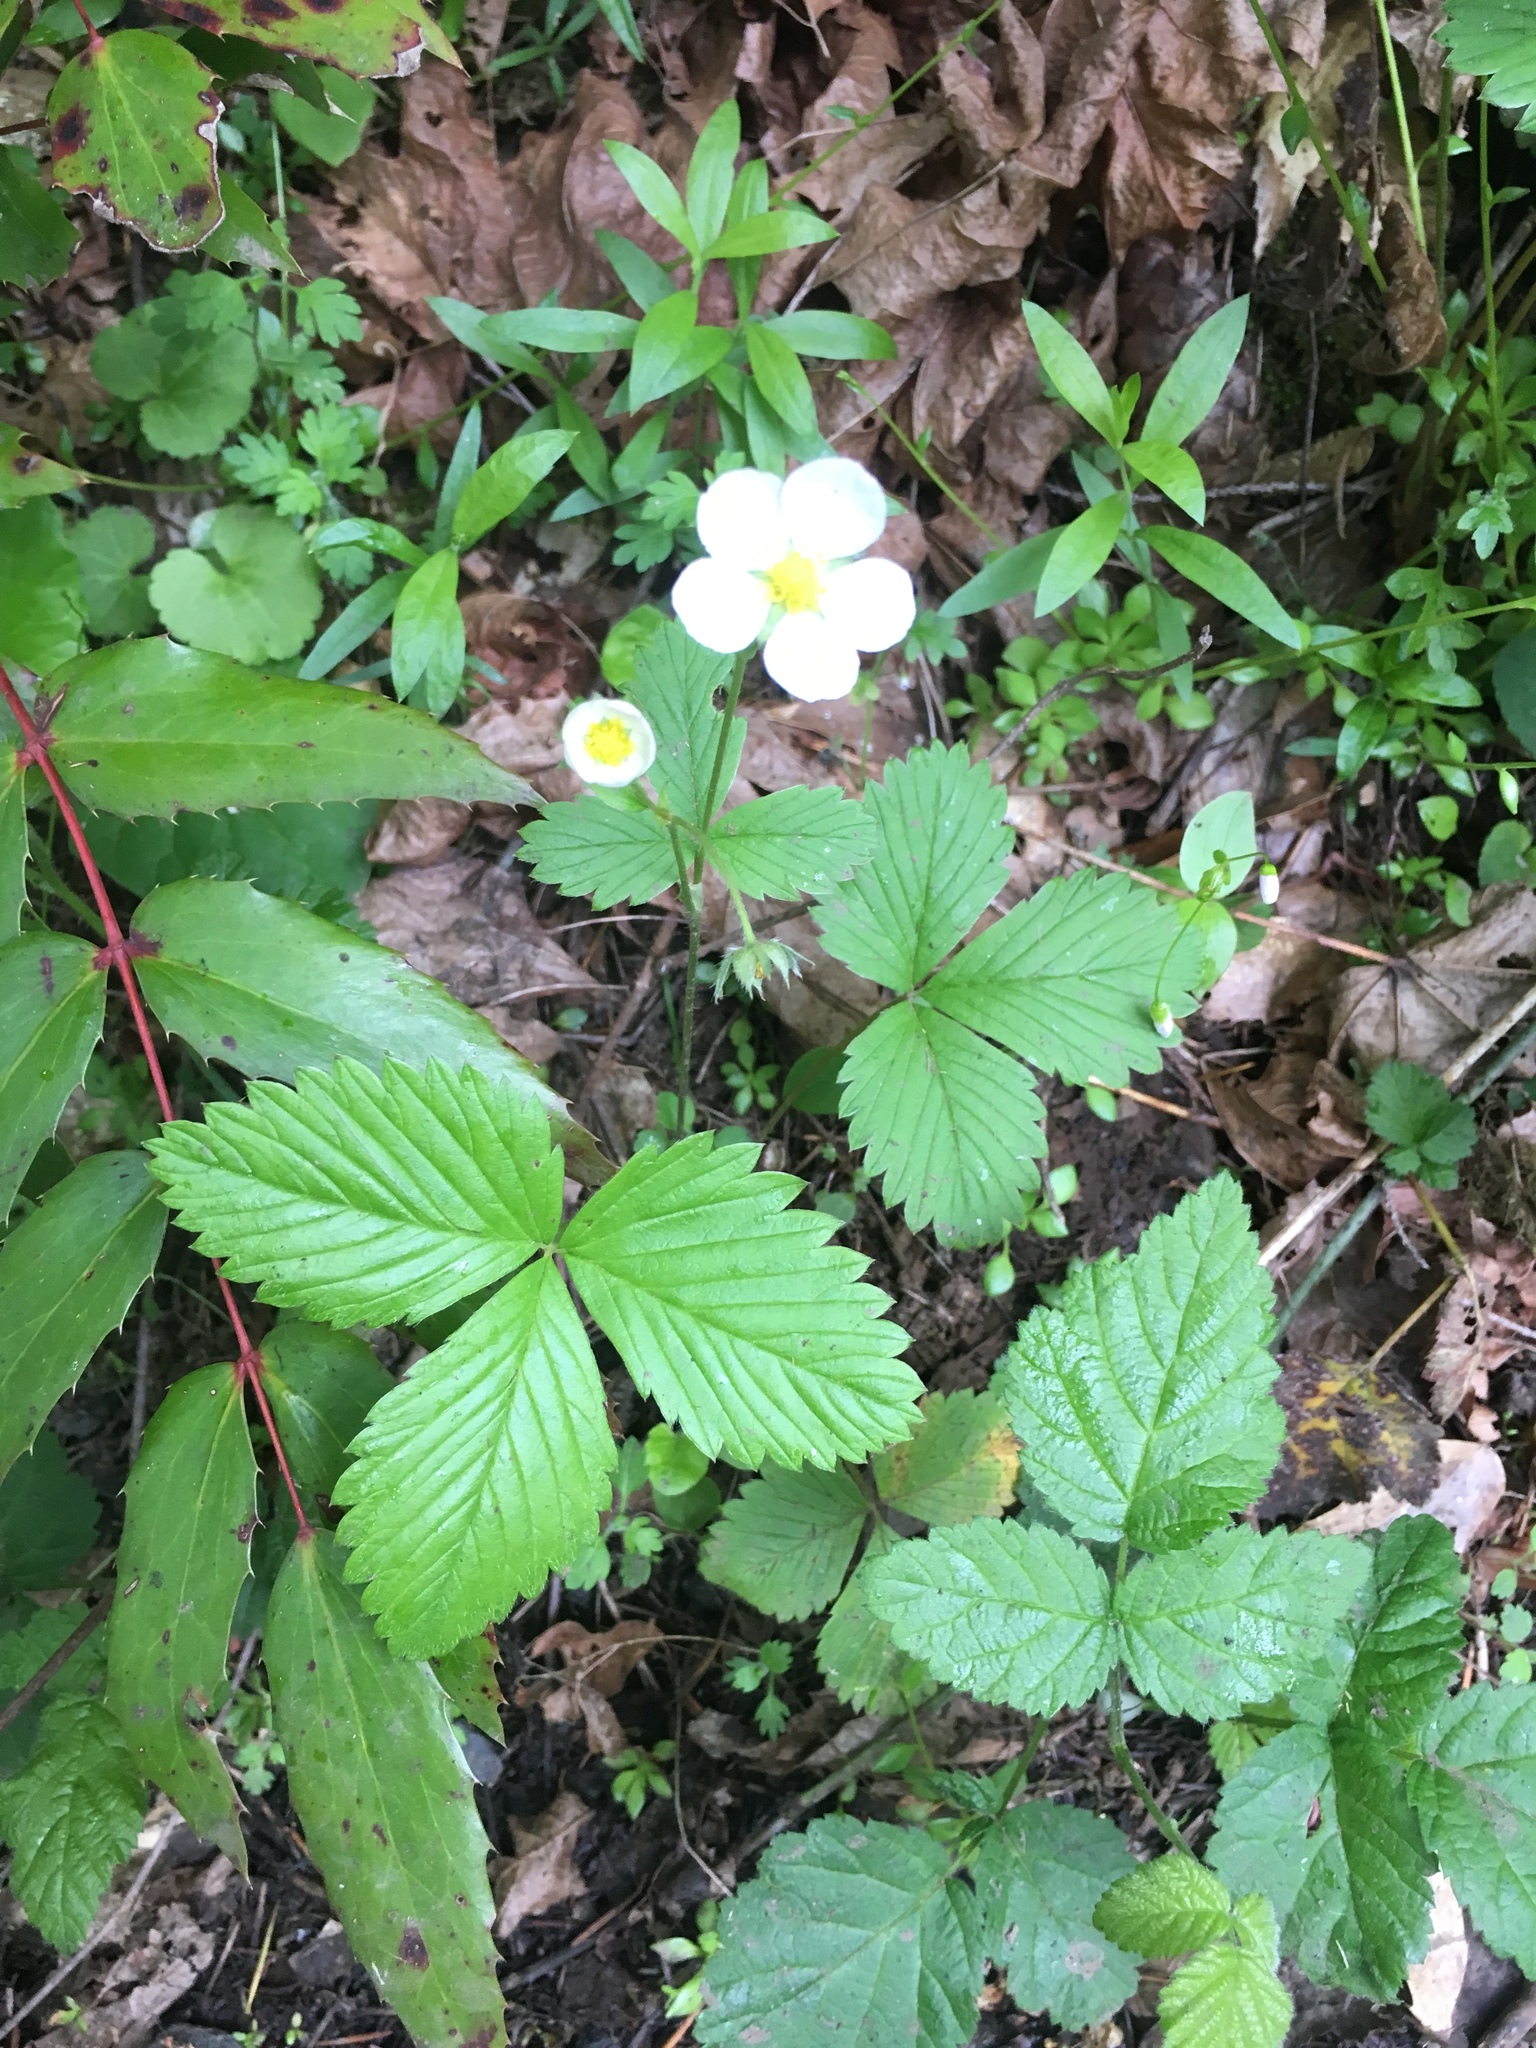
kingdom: Plantae
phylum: Tracheophyta
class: Magnoliopsida
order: Rosales
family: Rosaceae
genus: Fragaria
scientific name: Fragaria vesca
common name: Wild strawberry
